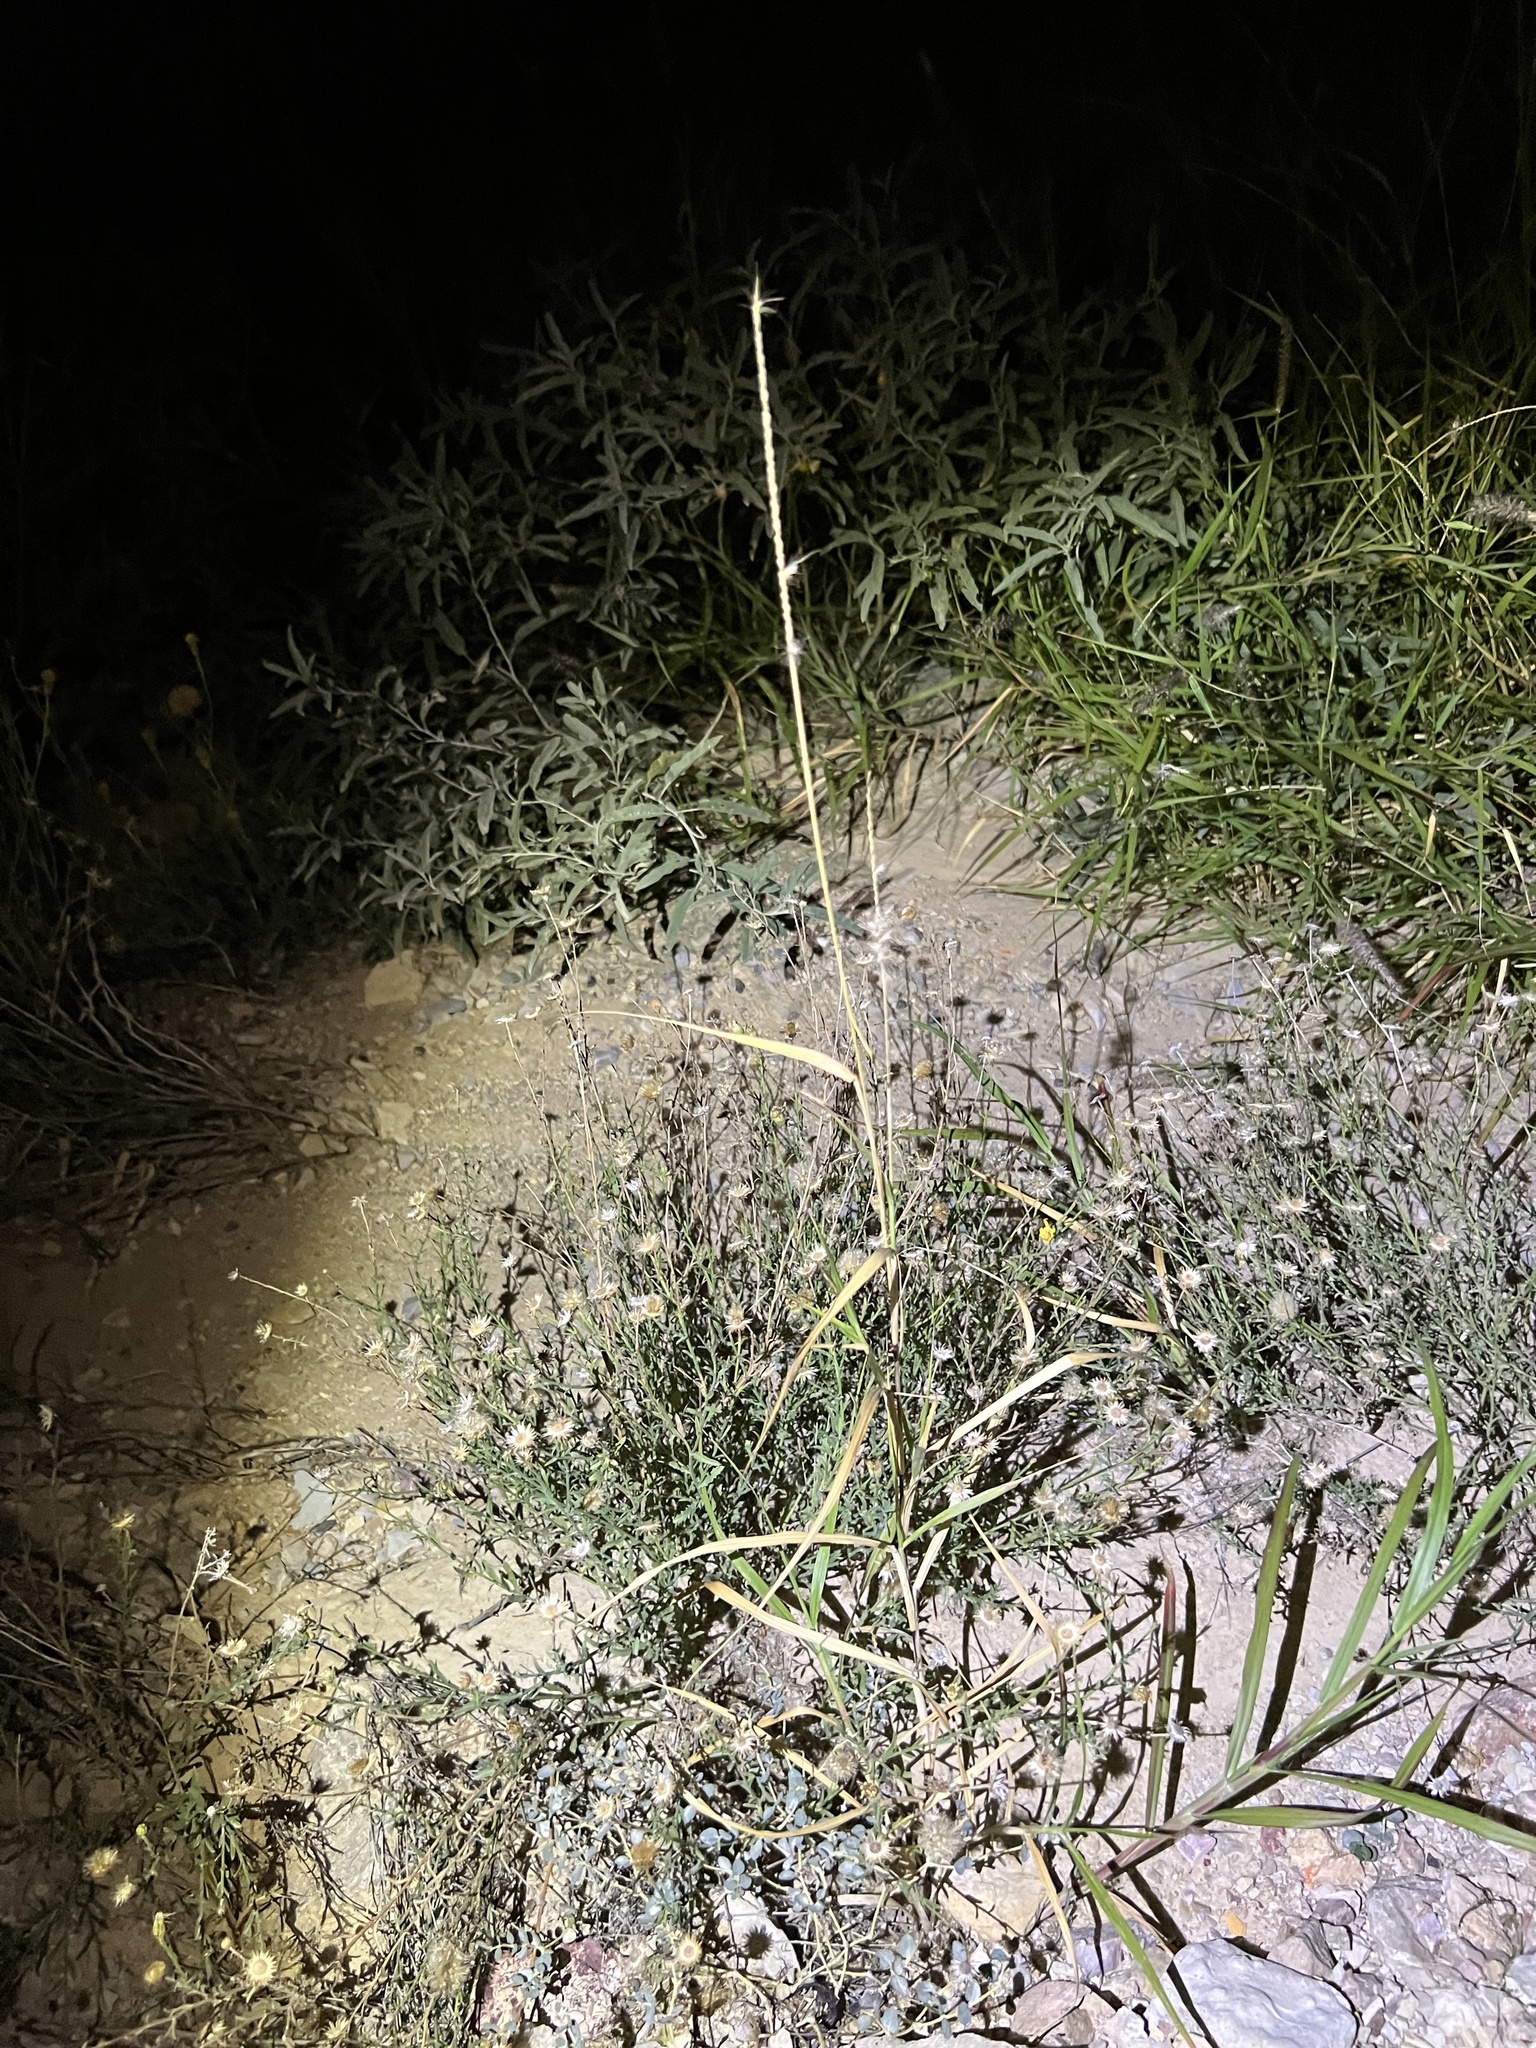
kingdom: Plantae
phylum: Tracheophyta
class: Liliopsida
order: Poales
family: Poaceae
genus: Cenchrus
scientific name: Cenchrus ciliaris
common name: Buffelgrass
